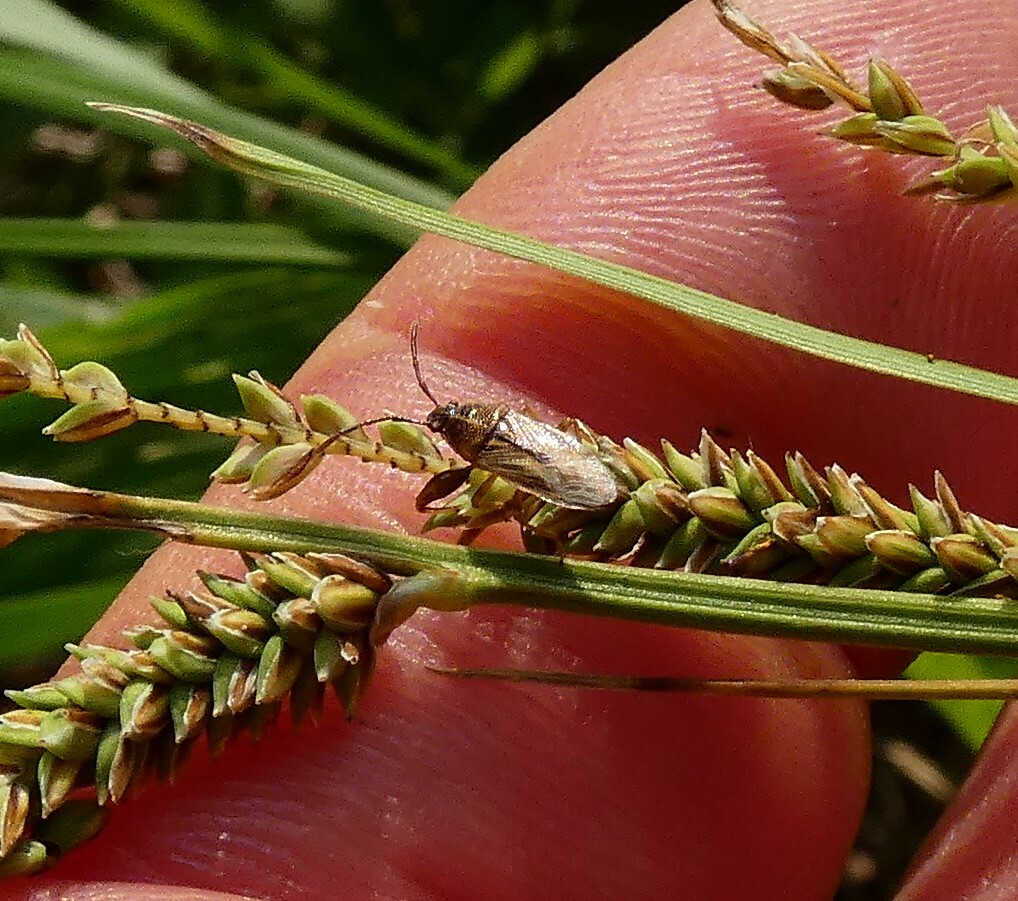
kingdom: Animalia
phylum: Arthropoda
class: Insecta
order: Hemiptera
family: Pachygronthidae
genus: Oedancala
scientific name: Oedancala dorsalis
